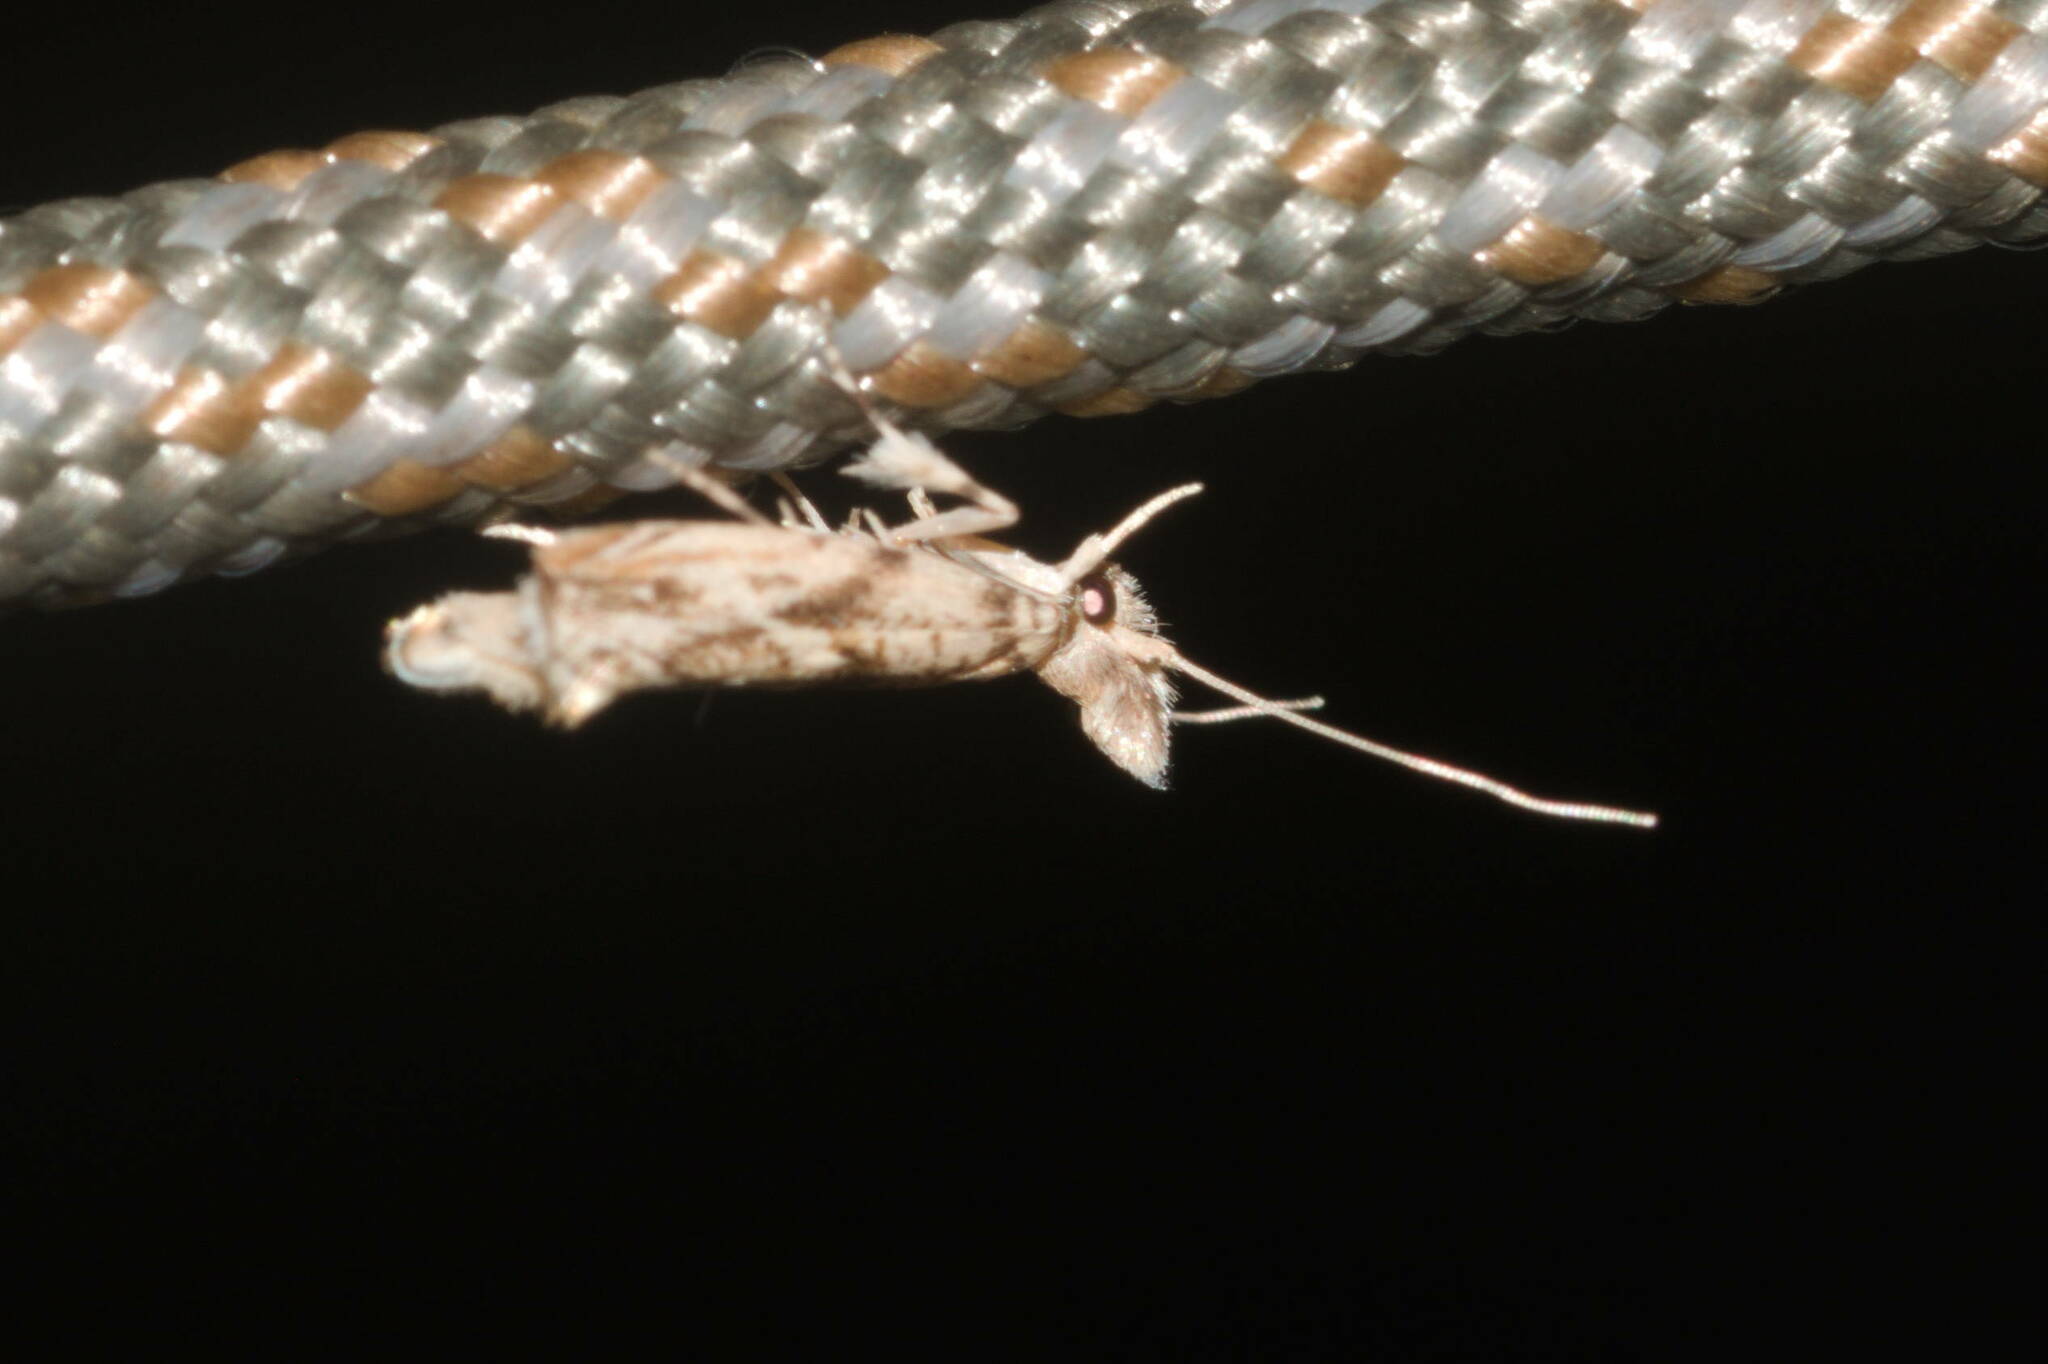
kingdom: Animalia
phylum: Arthropoda
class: Insecta
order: Lepidoptera
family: Tineidae
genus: Erechthias
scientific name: Erechthias pelotricha
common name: Fungus moth
